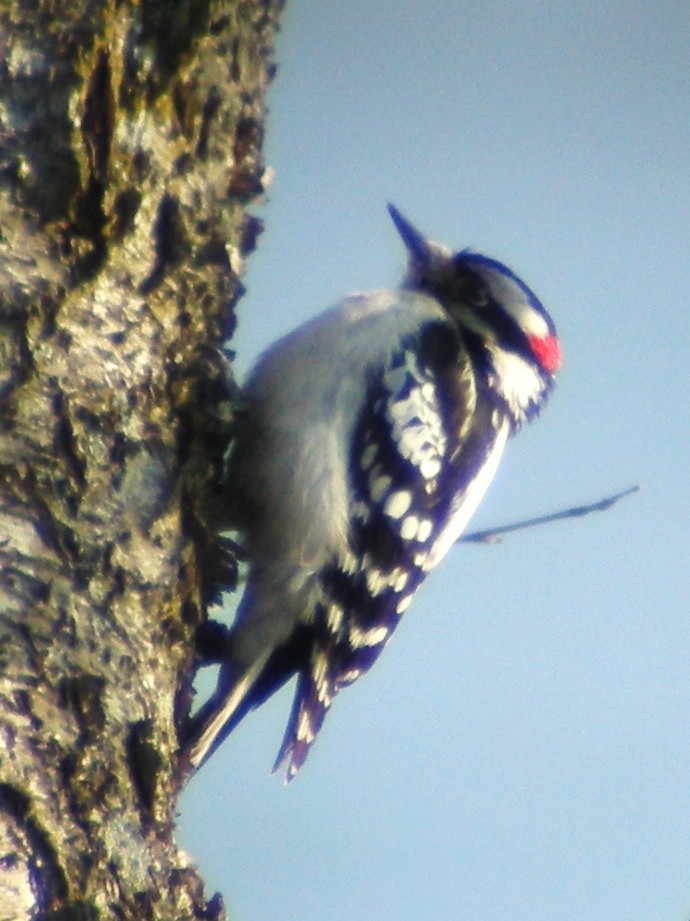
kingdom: Animalia
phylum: Chordata
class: Aves
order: Piciformes
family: Picidae
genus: Dryobates
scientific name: Dryobates pubescens
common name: Downy woodpecker
